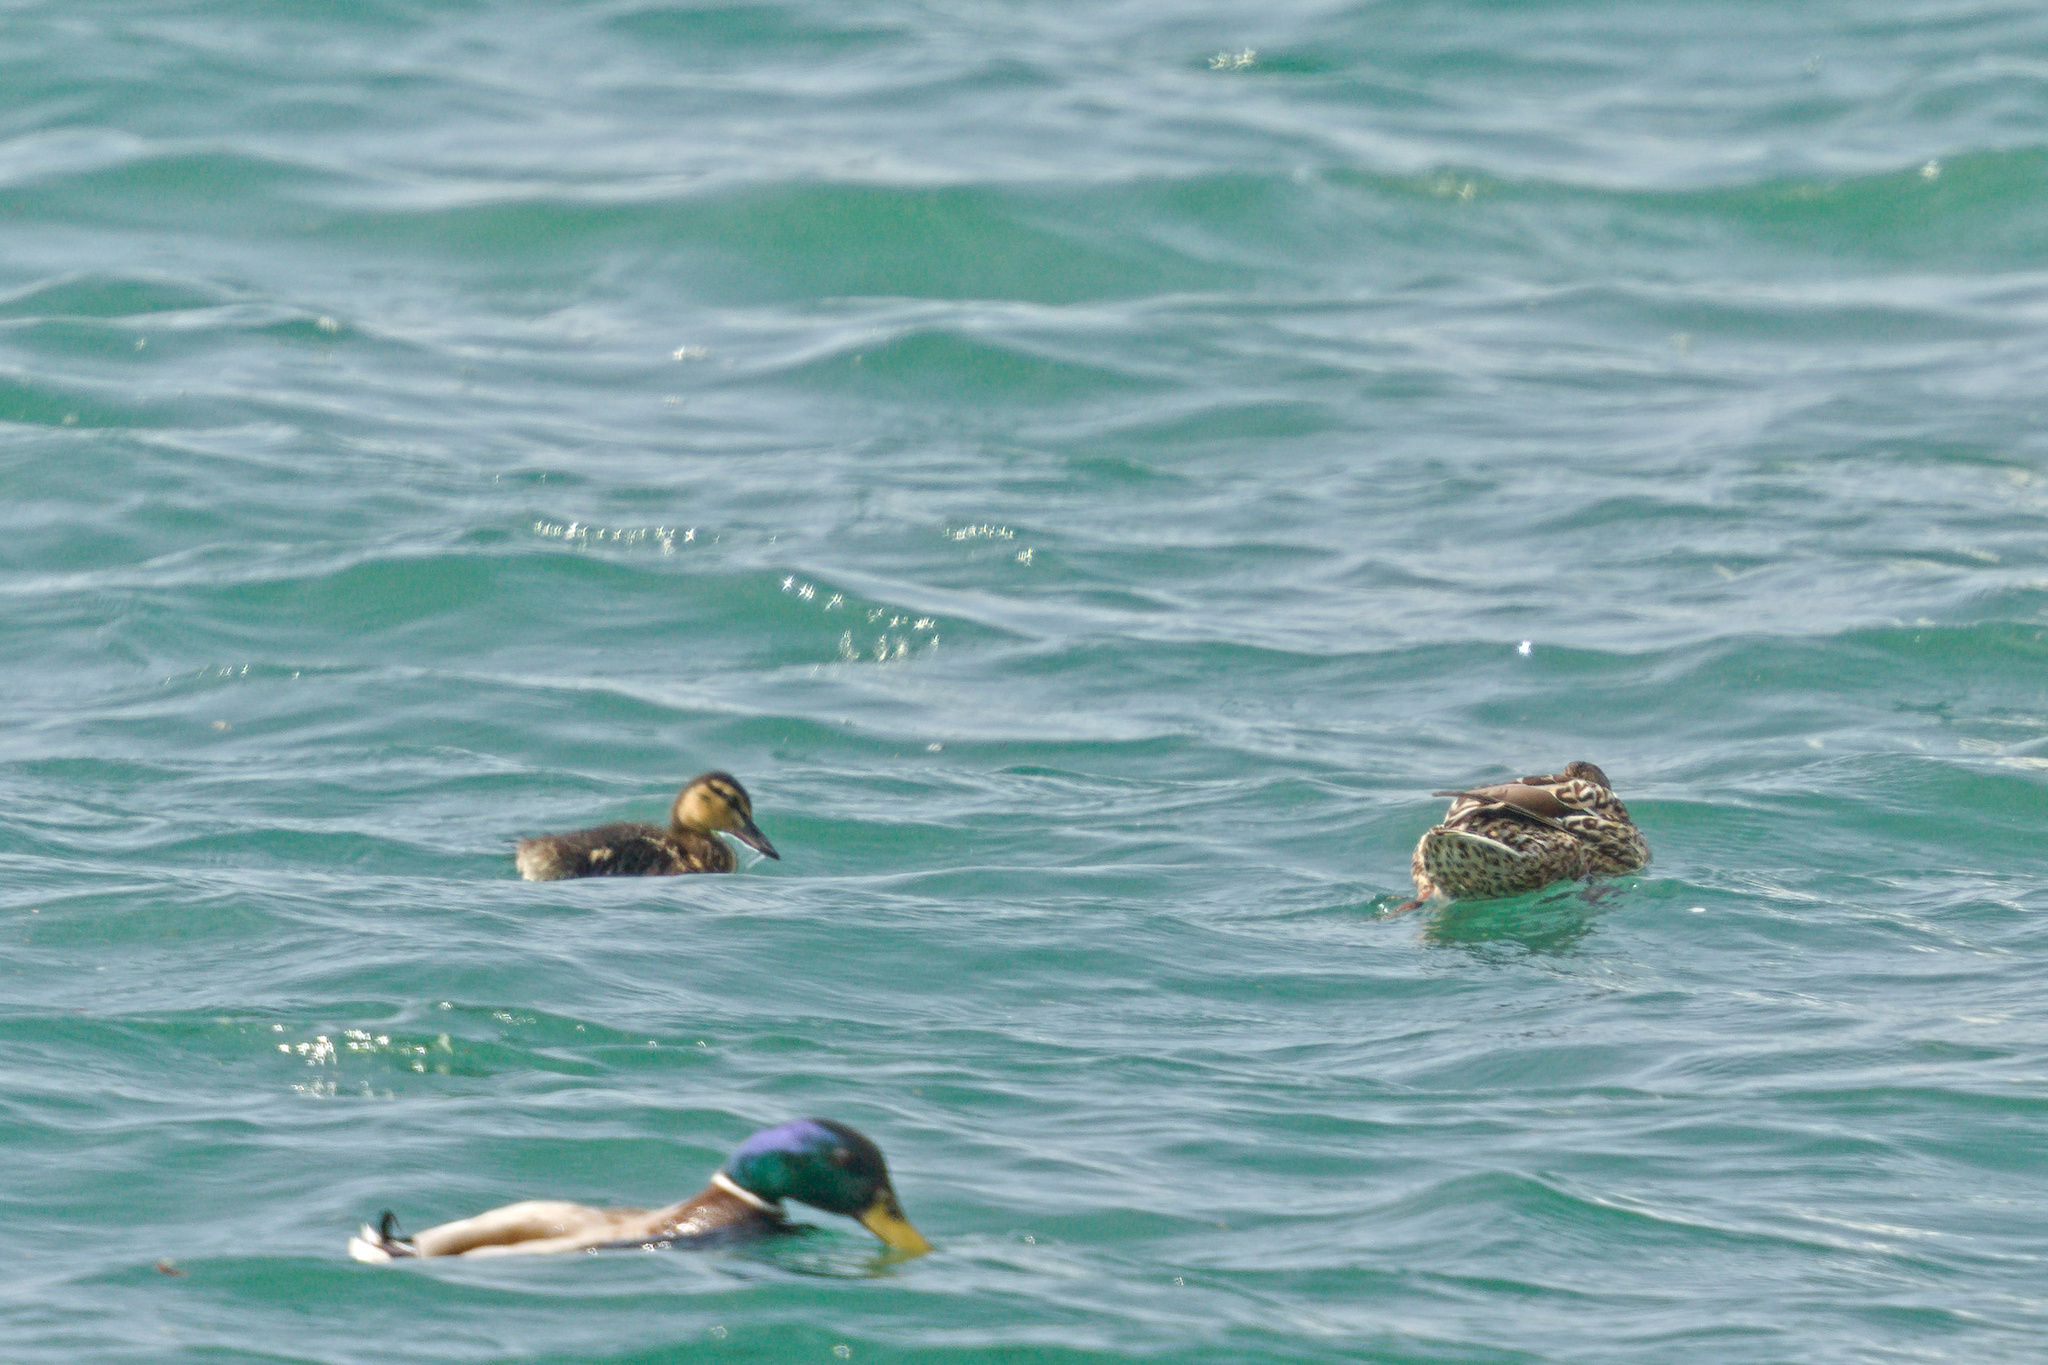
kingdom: Animalia
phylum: Chordata
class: Aves
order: Anseriformes
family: Anatidae
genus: Anas
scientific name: Anas platyrhynchos
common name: Mallard
